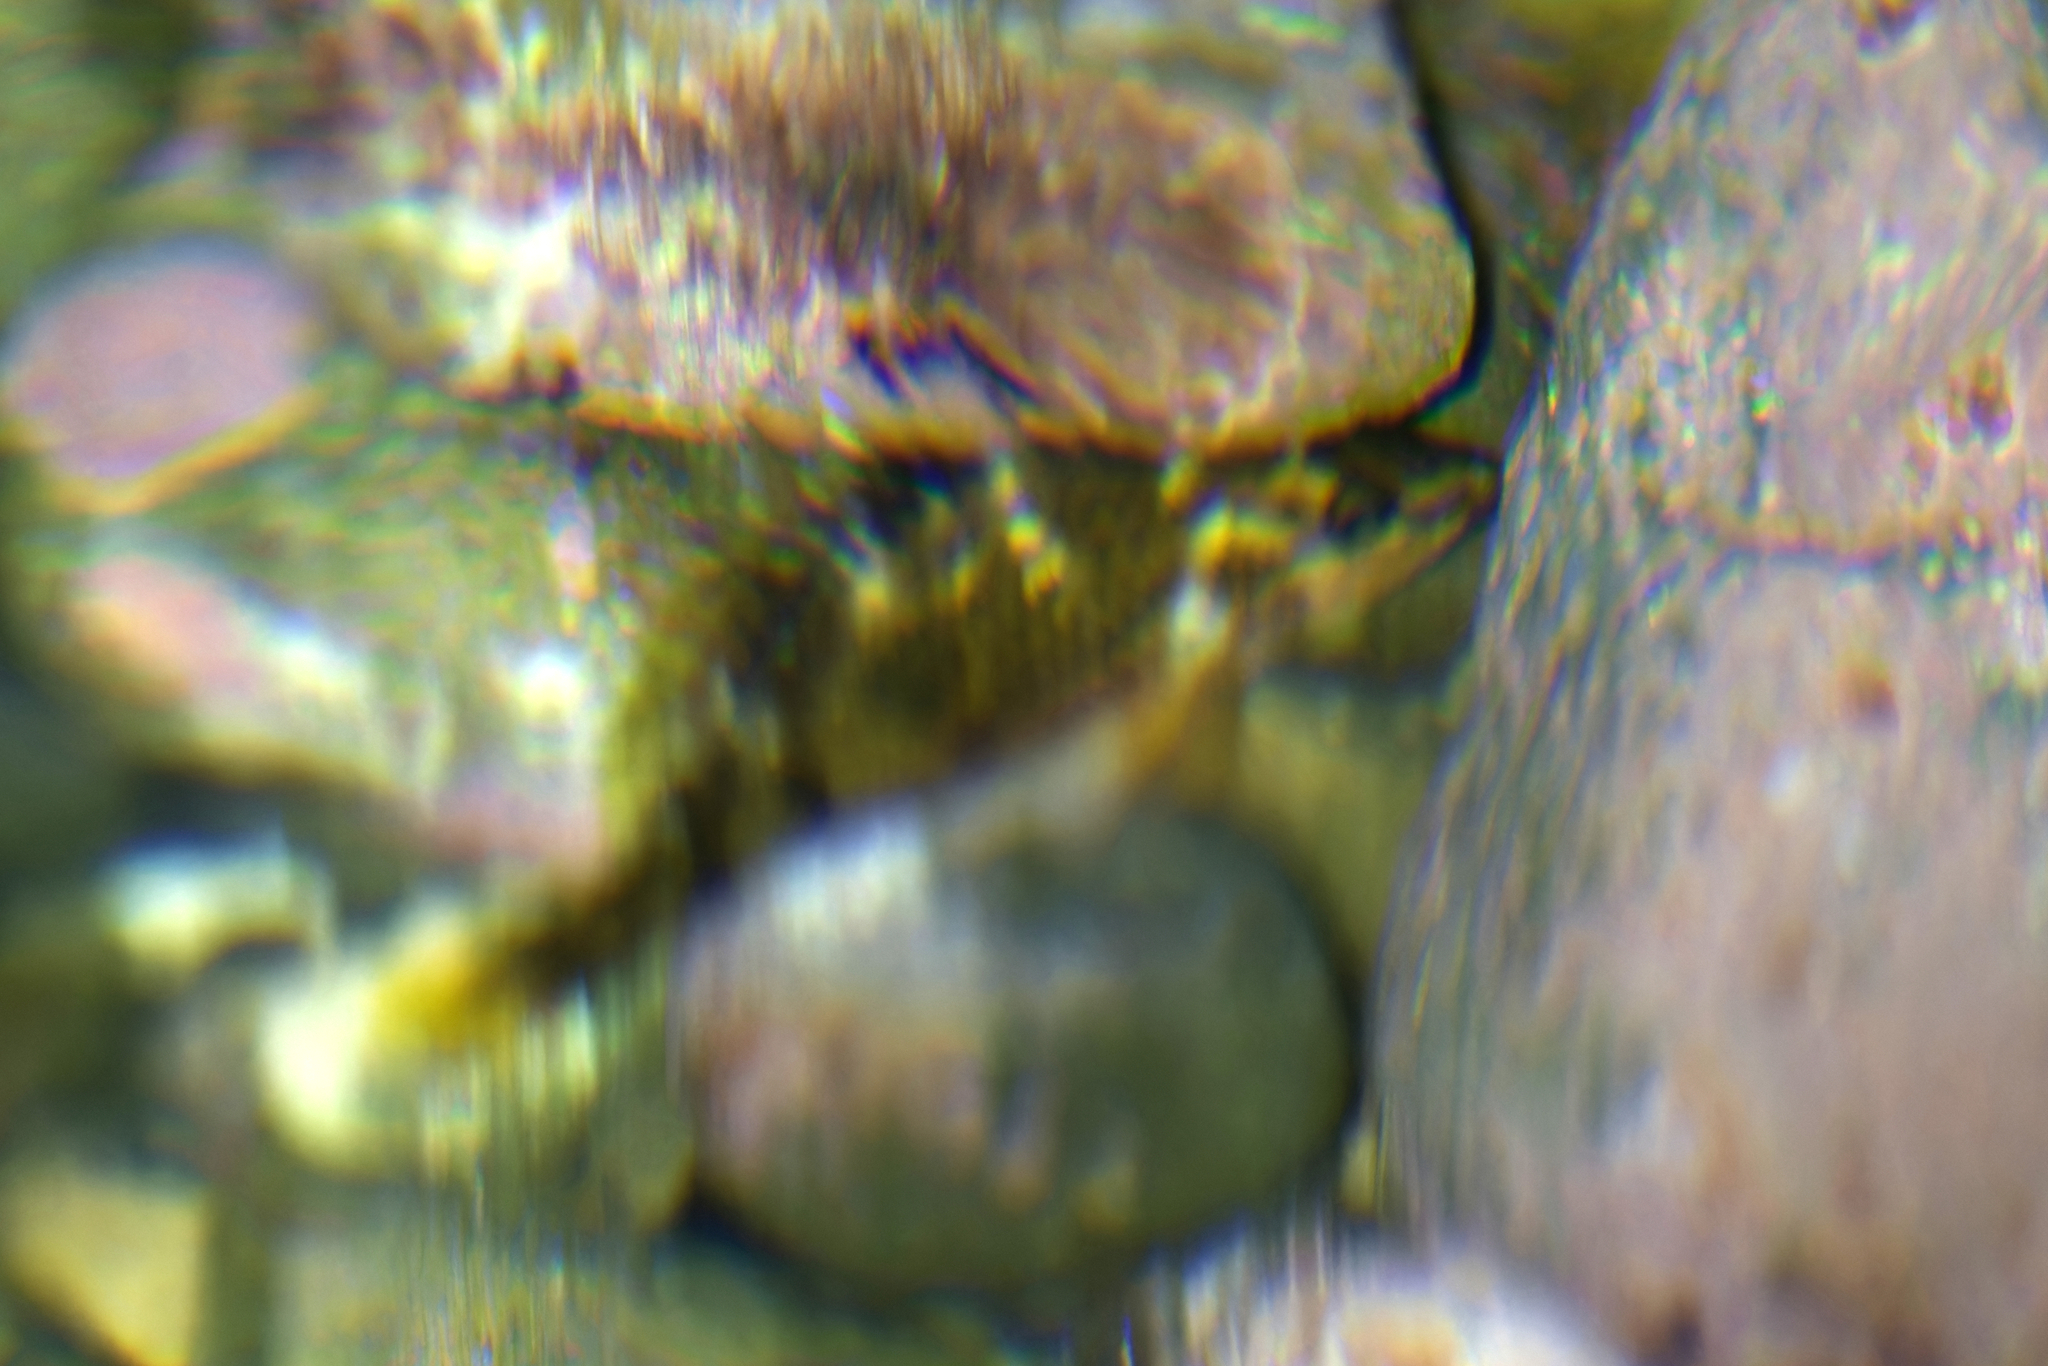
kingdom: Animalia
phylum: Chordata
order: Perciformes
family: Labridae
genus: Notolabrus
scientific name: Notolabrus celidotus
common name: Spotty
